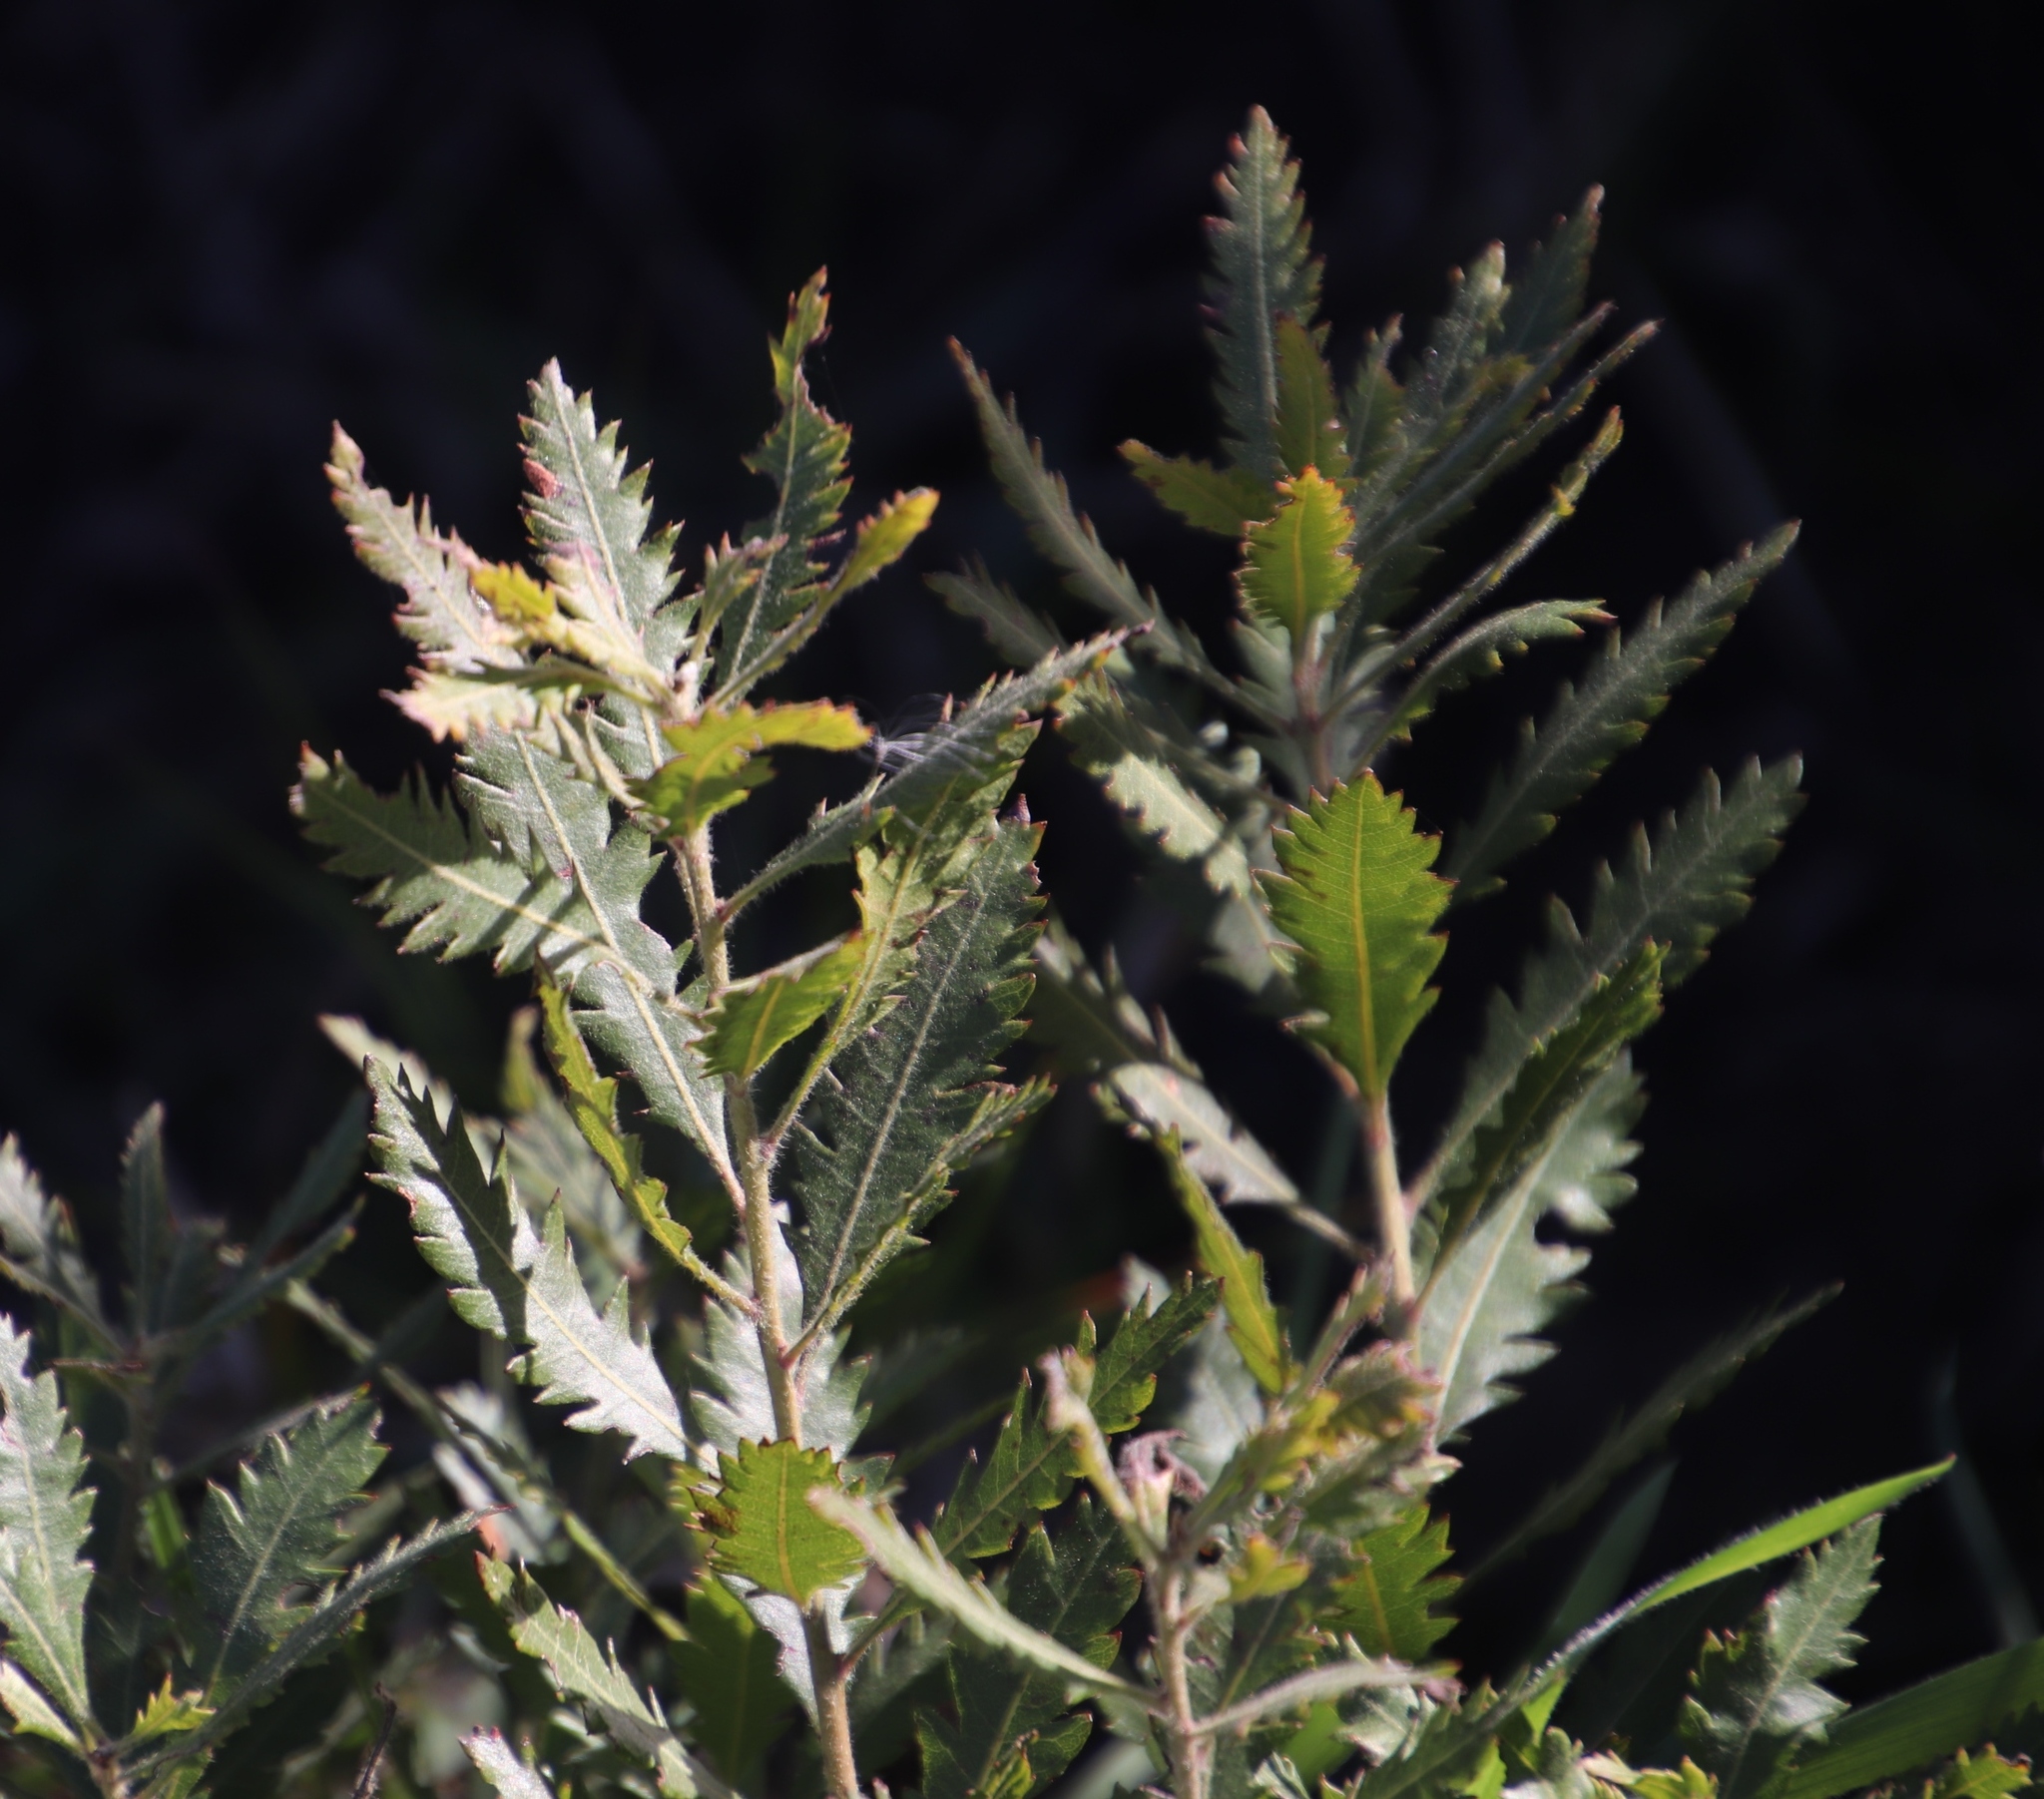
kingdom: Plantae
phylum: Tracheophyta
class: Magnoliopsida
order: Fagales
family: Myricaceae
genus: Morella
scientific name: Morella serrata
